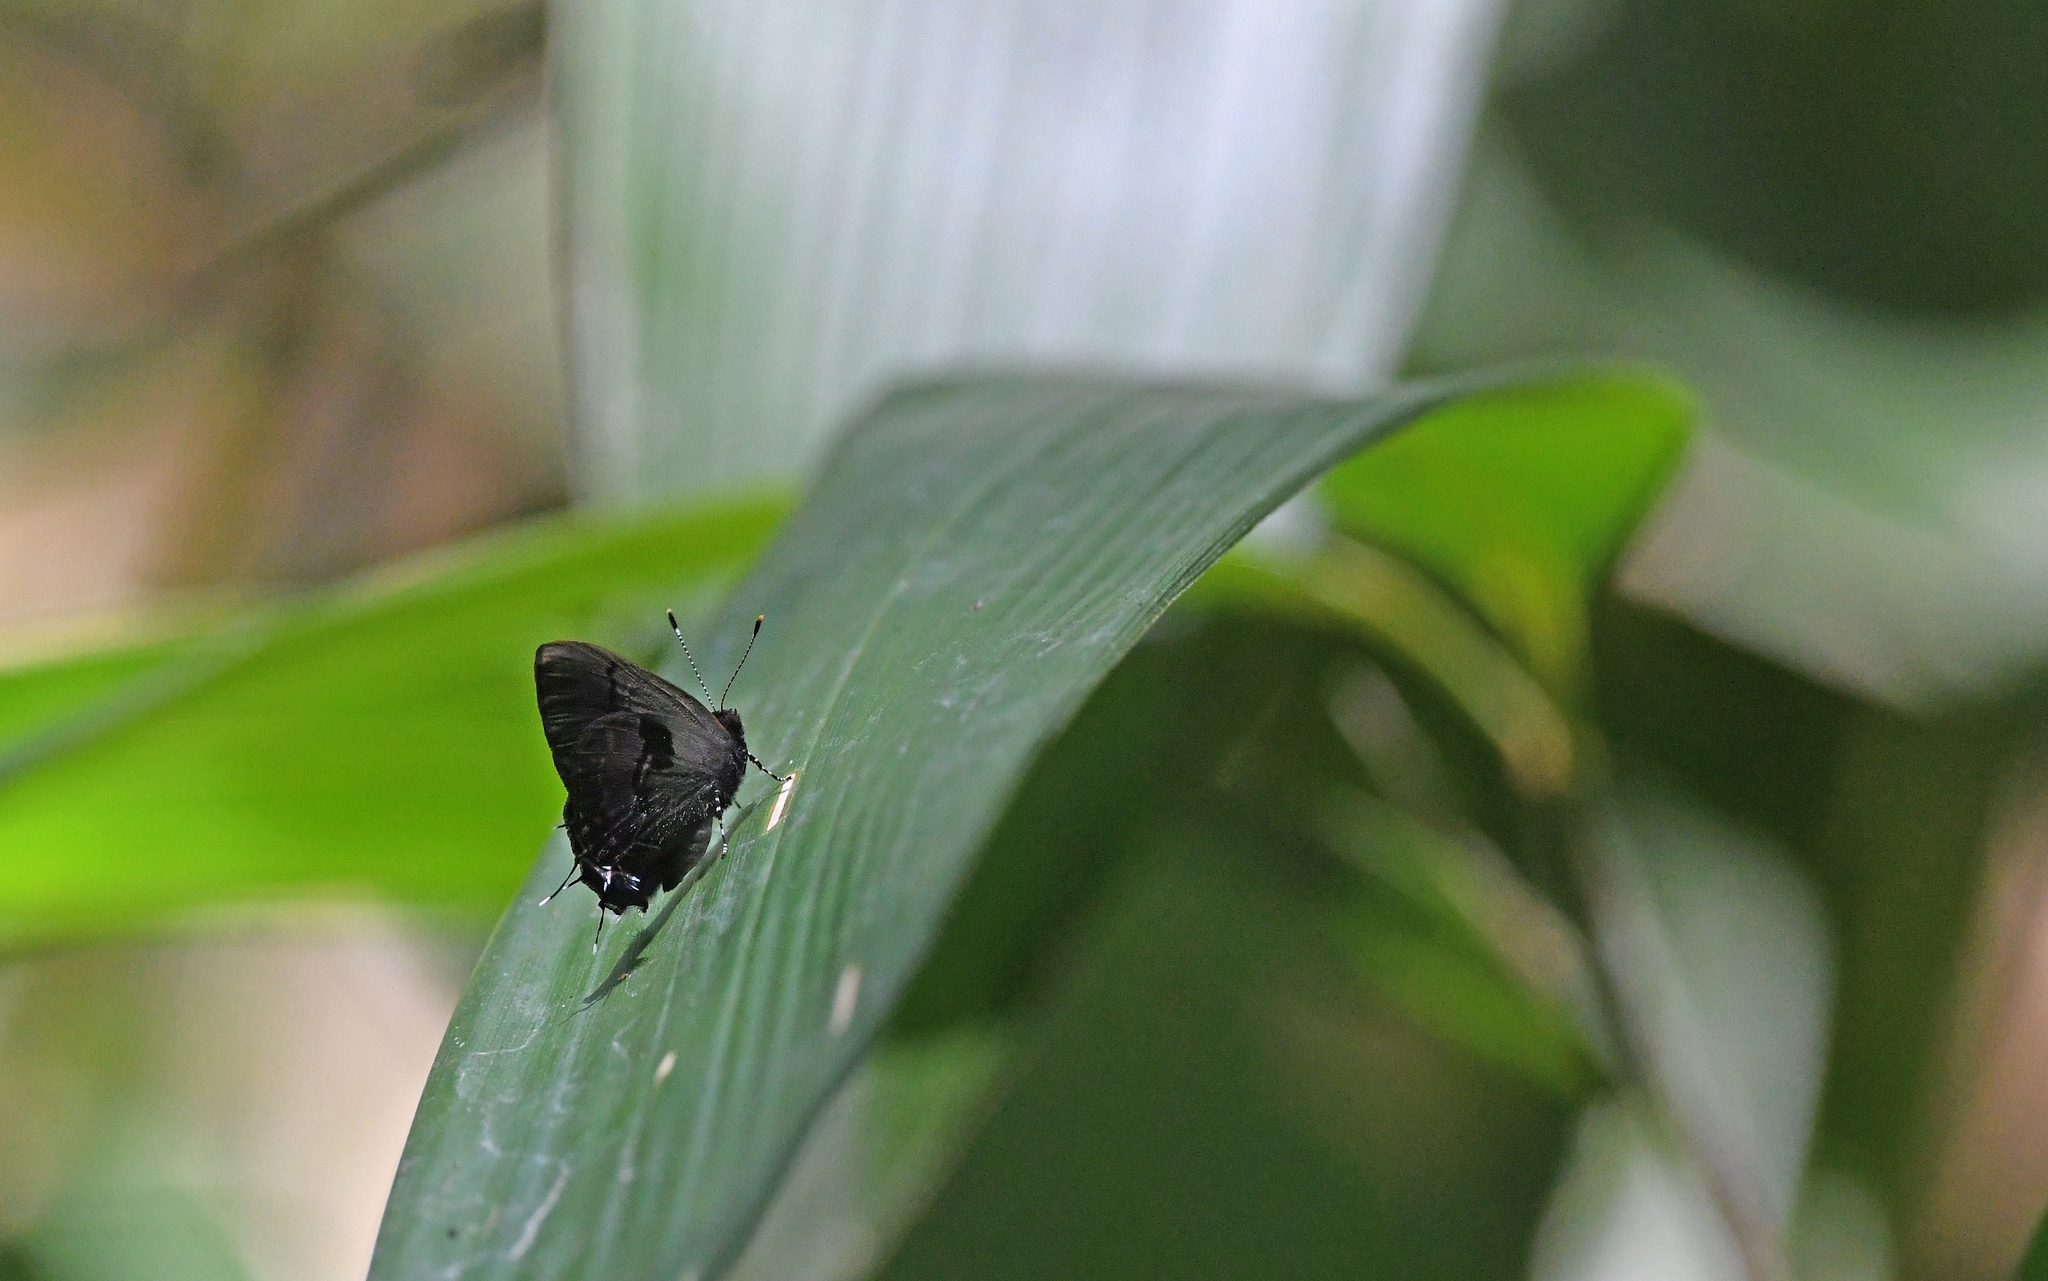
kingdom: Animalia
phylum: Arthropoda
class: Insecta
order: Lepidoptera
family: Lycaenidae
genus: Calycopis
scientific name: Calycopis
